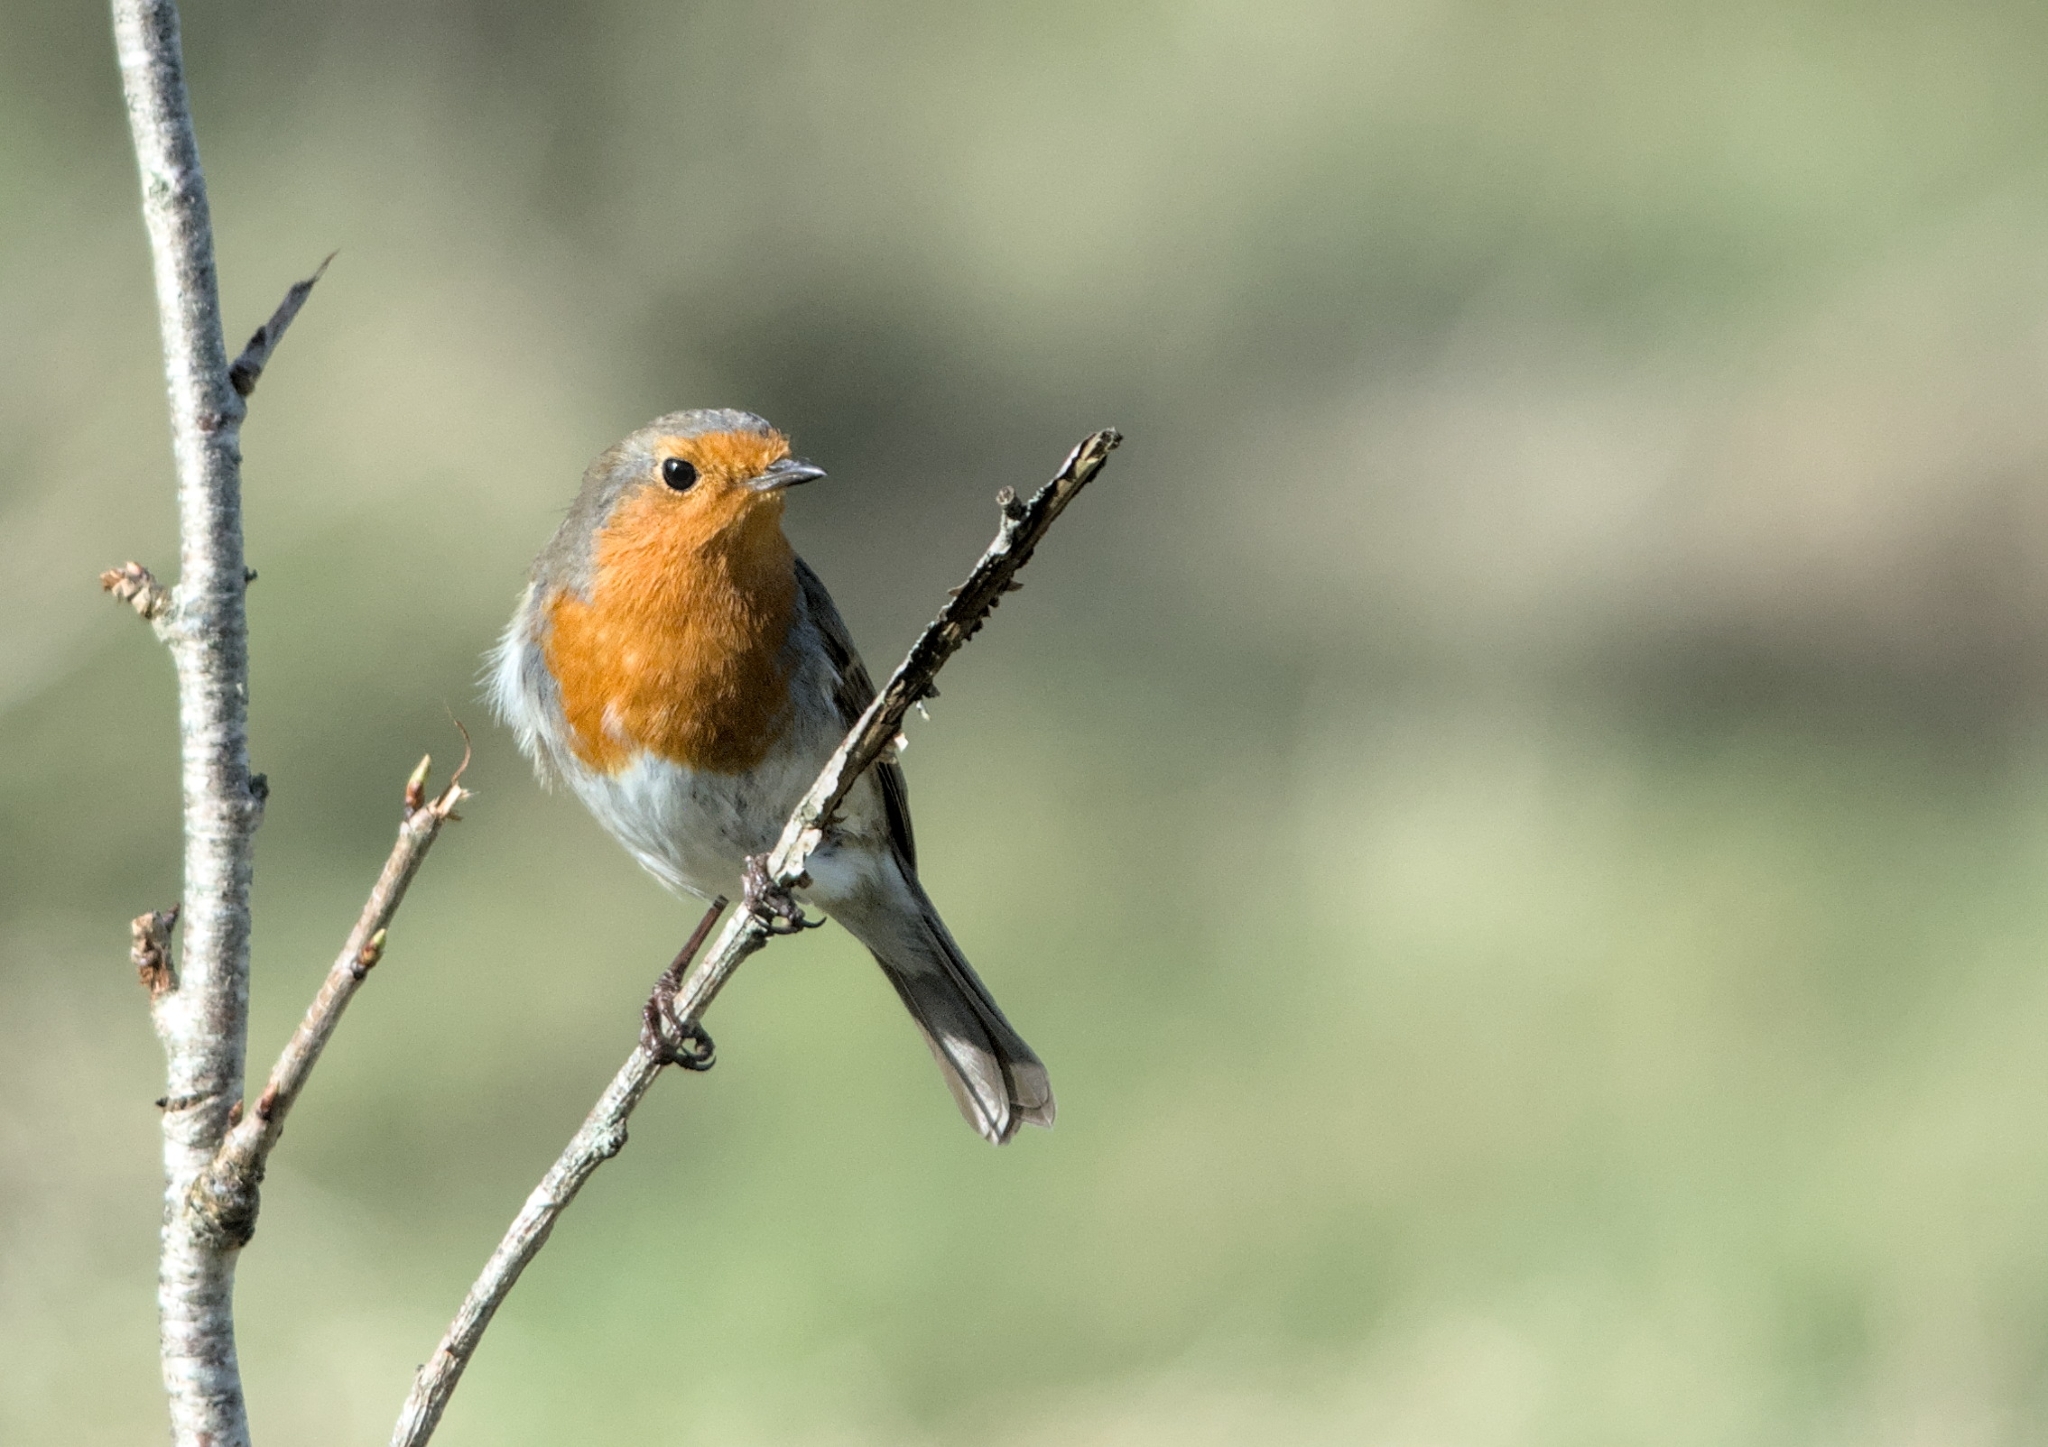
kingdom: Animalia
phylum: Chordata
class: Aves
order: Passeriformes
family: Muscicapidae
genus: Erithacus
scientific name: Erithacus rubecula
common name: European robin
